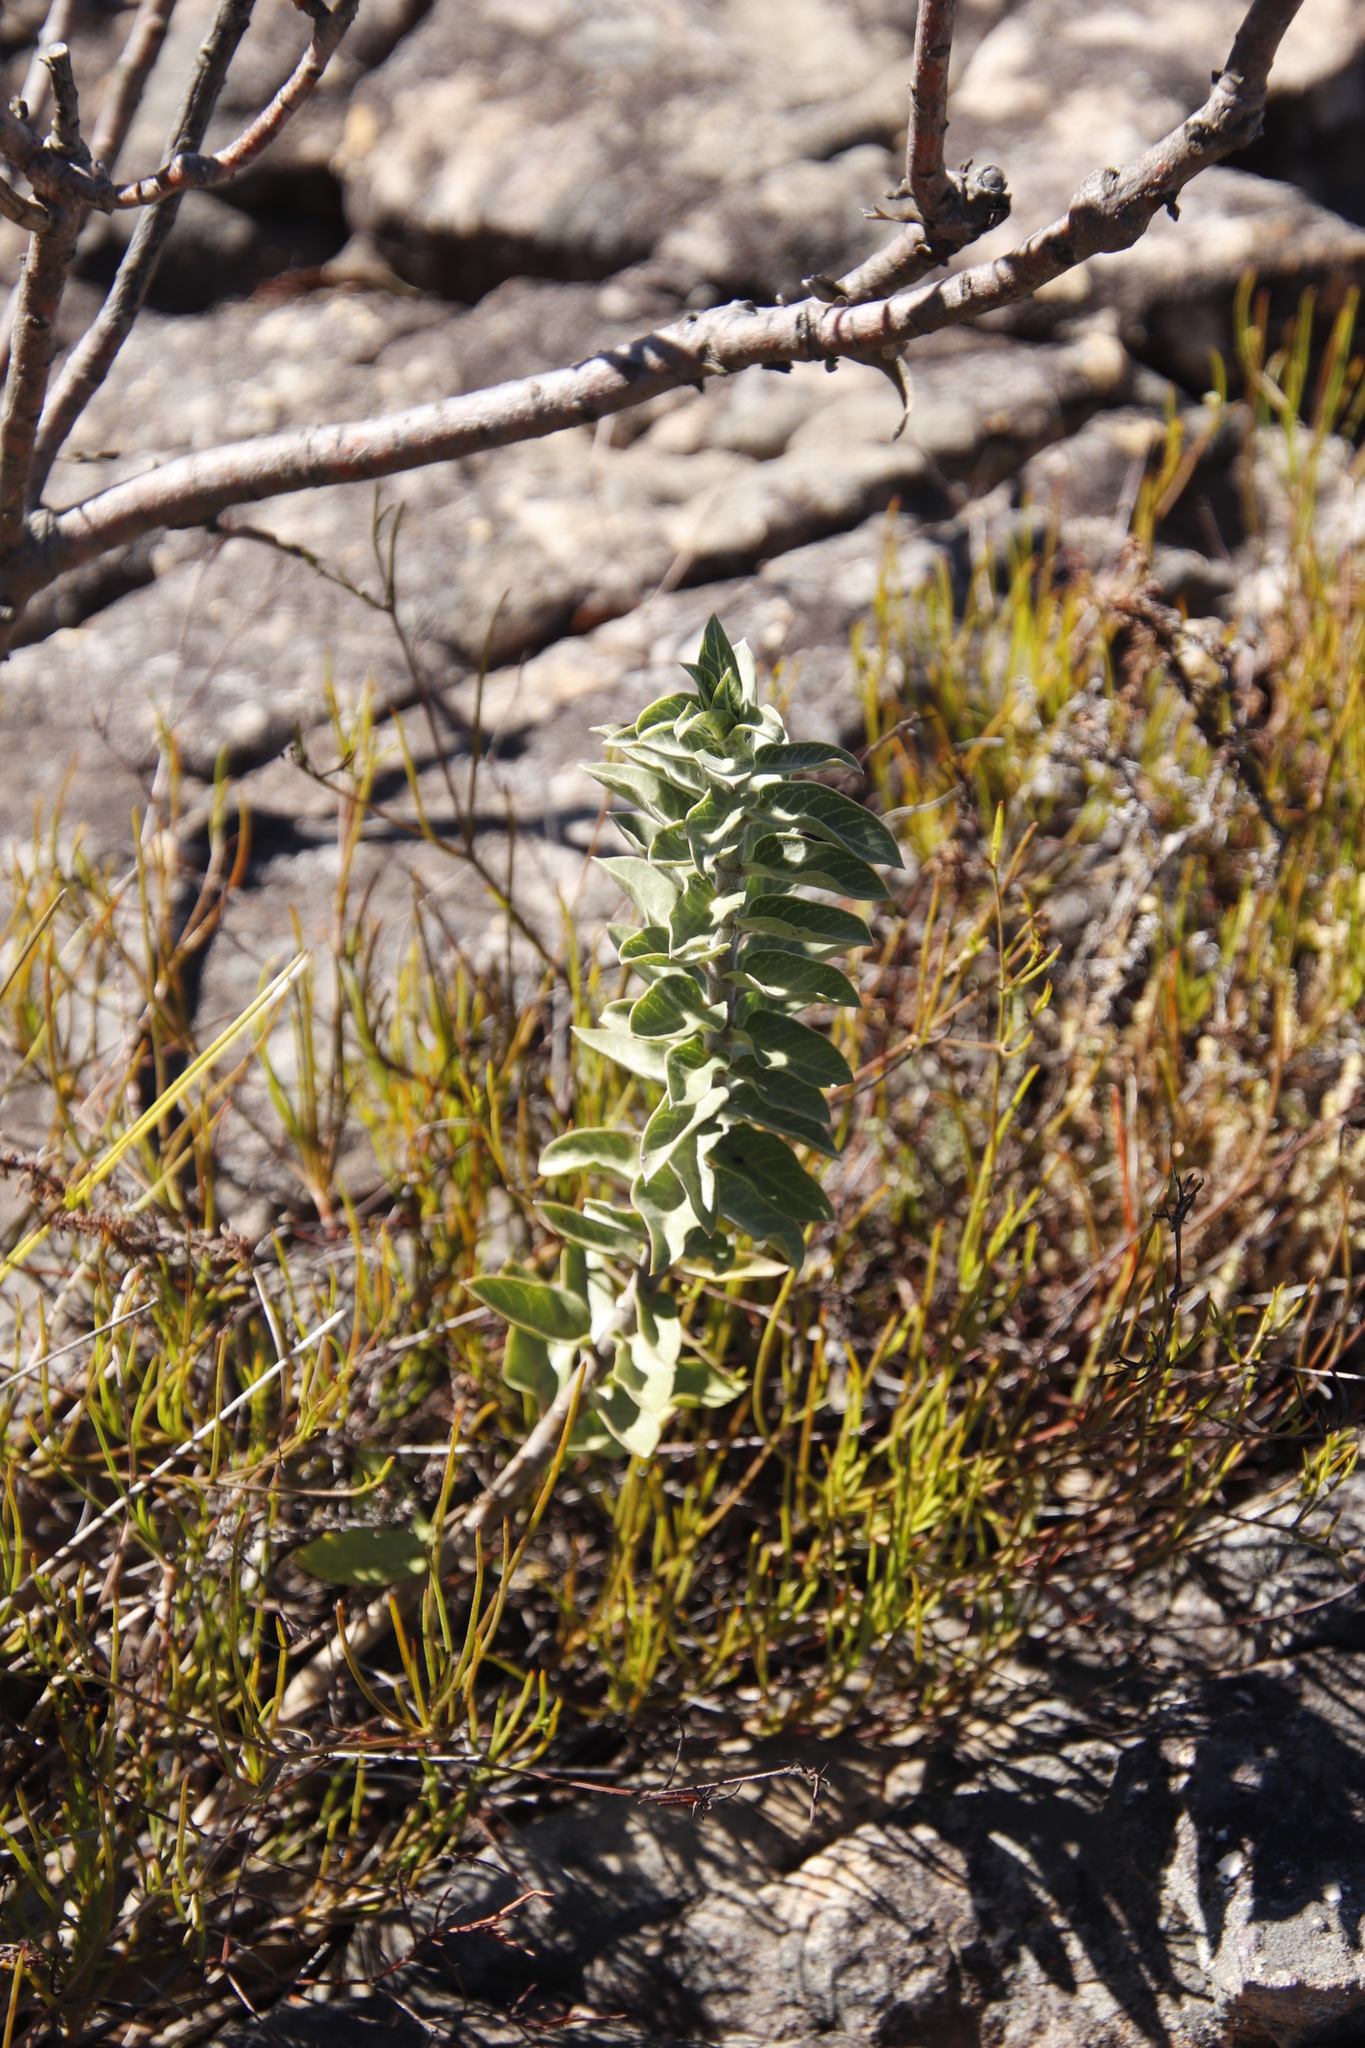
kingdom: Plantae
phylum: Tracheophyta
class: Magnoliopsida
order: Gentianales
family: Apocynaceae
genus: Gomphocarpus
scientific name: Gomphocarpus cancellatus
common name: Wild cotton
